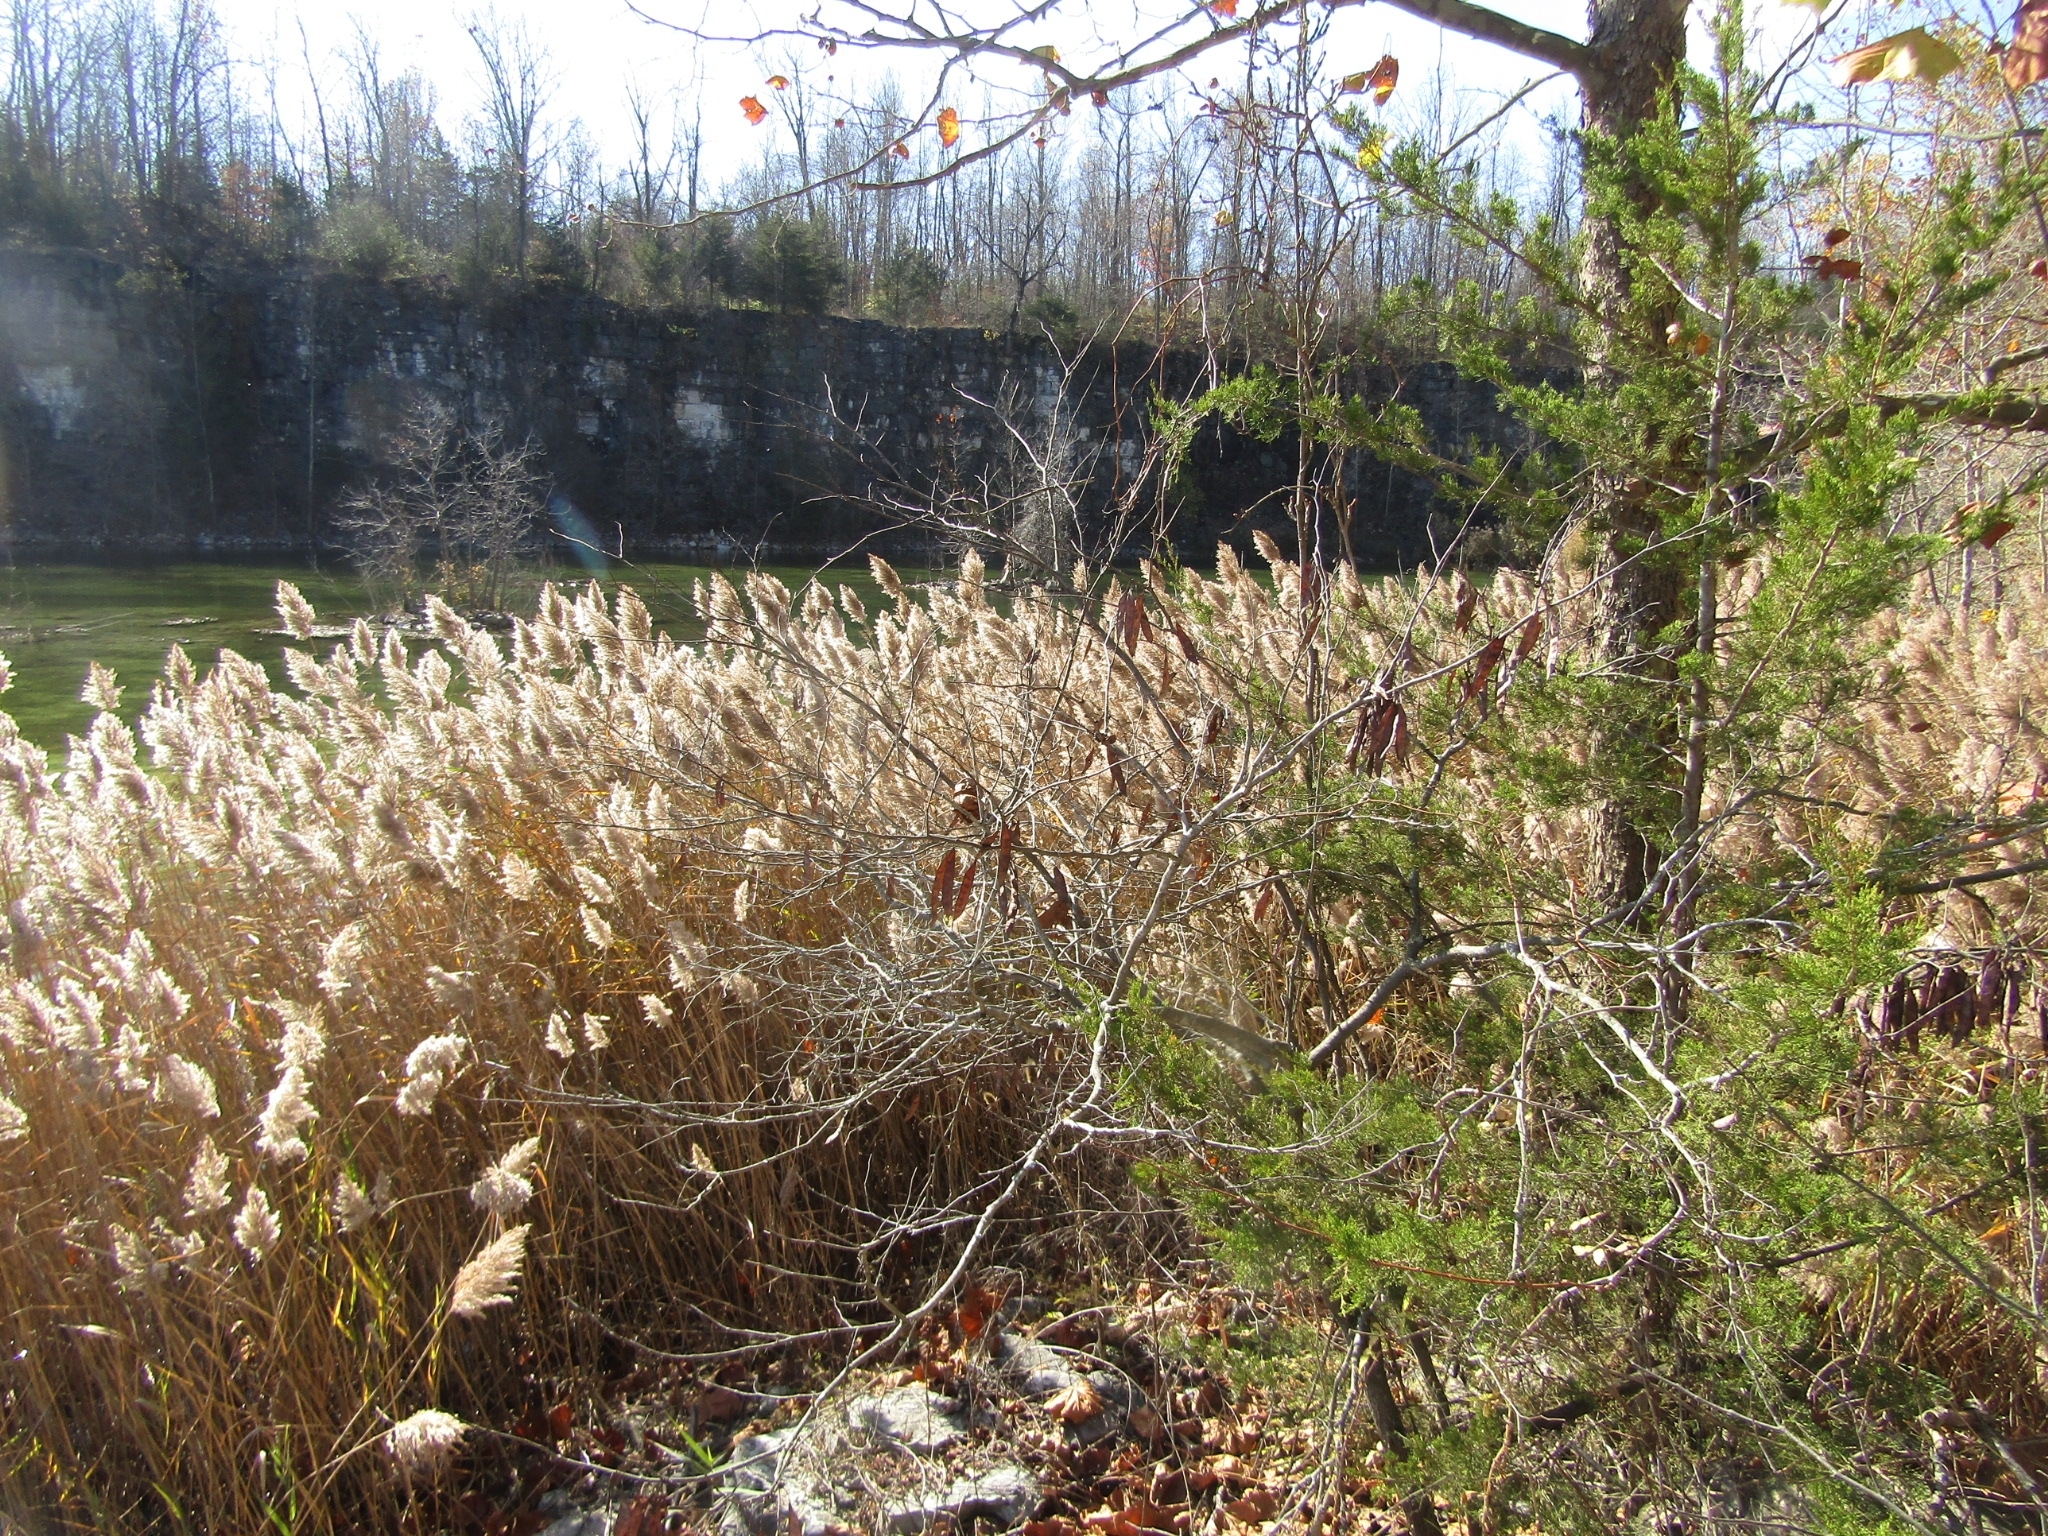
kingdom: Plantae
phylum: Tracheophyta
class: Liliopsida
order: Poales
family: Poaceae
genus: Phragmites
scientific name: Phragmites australis
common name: Common reed
